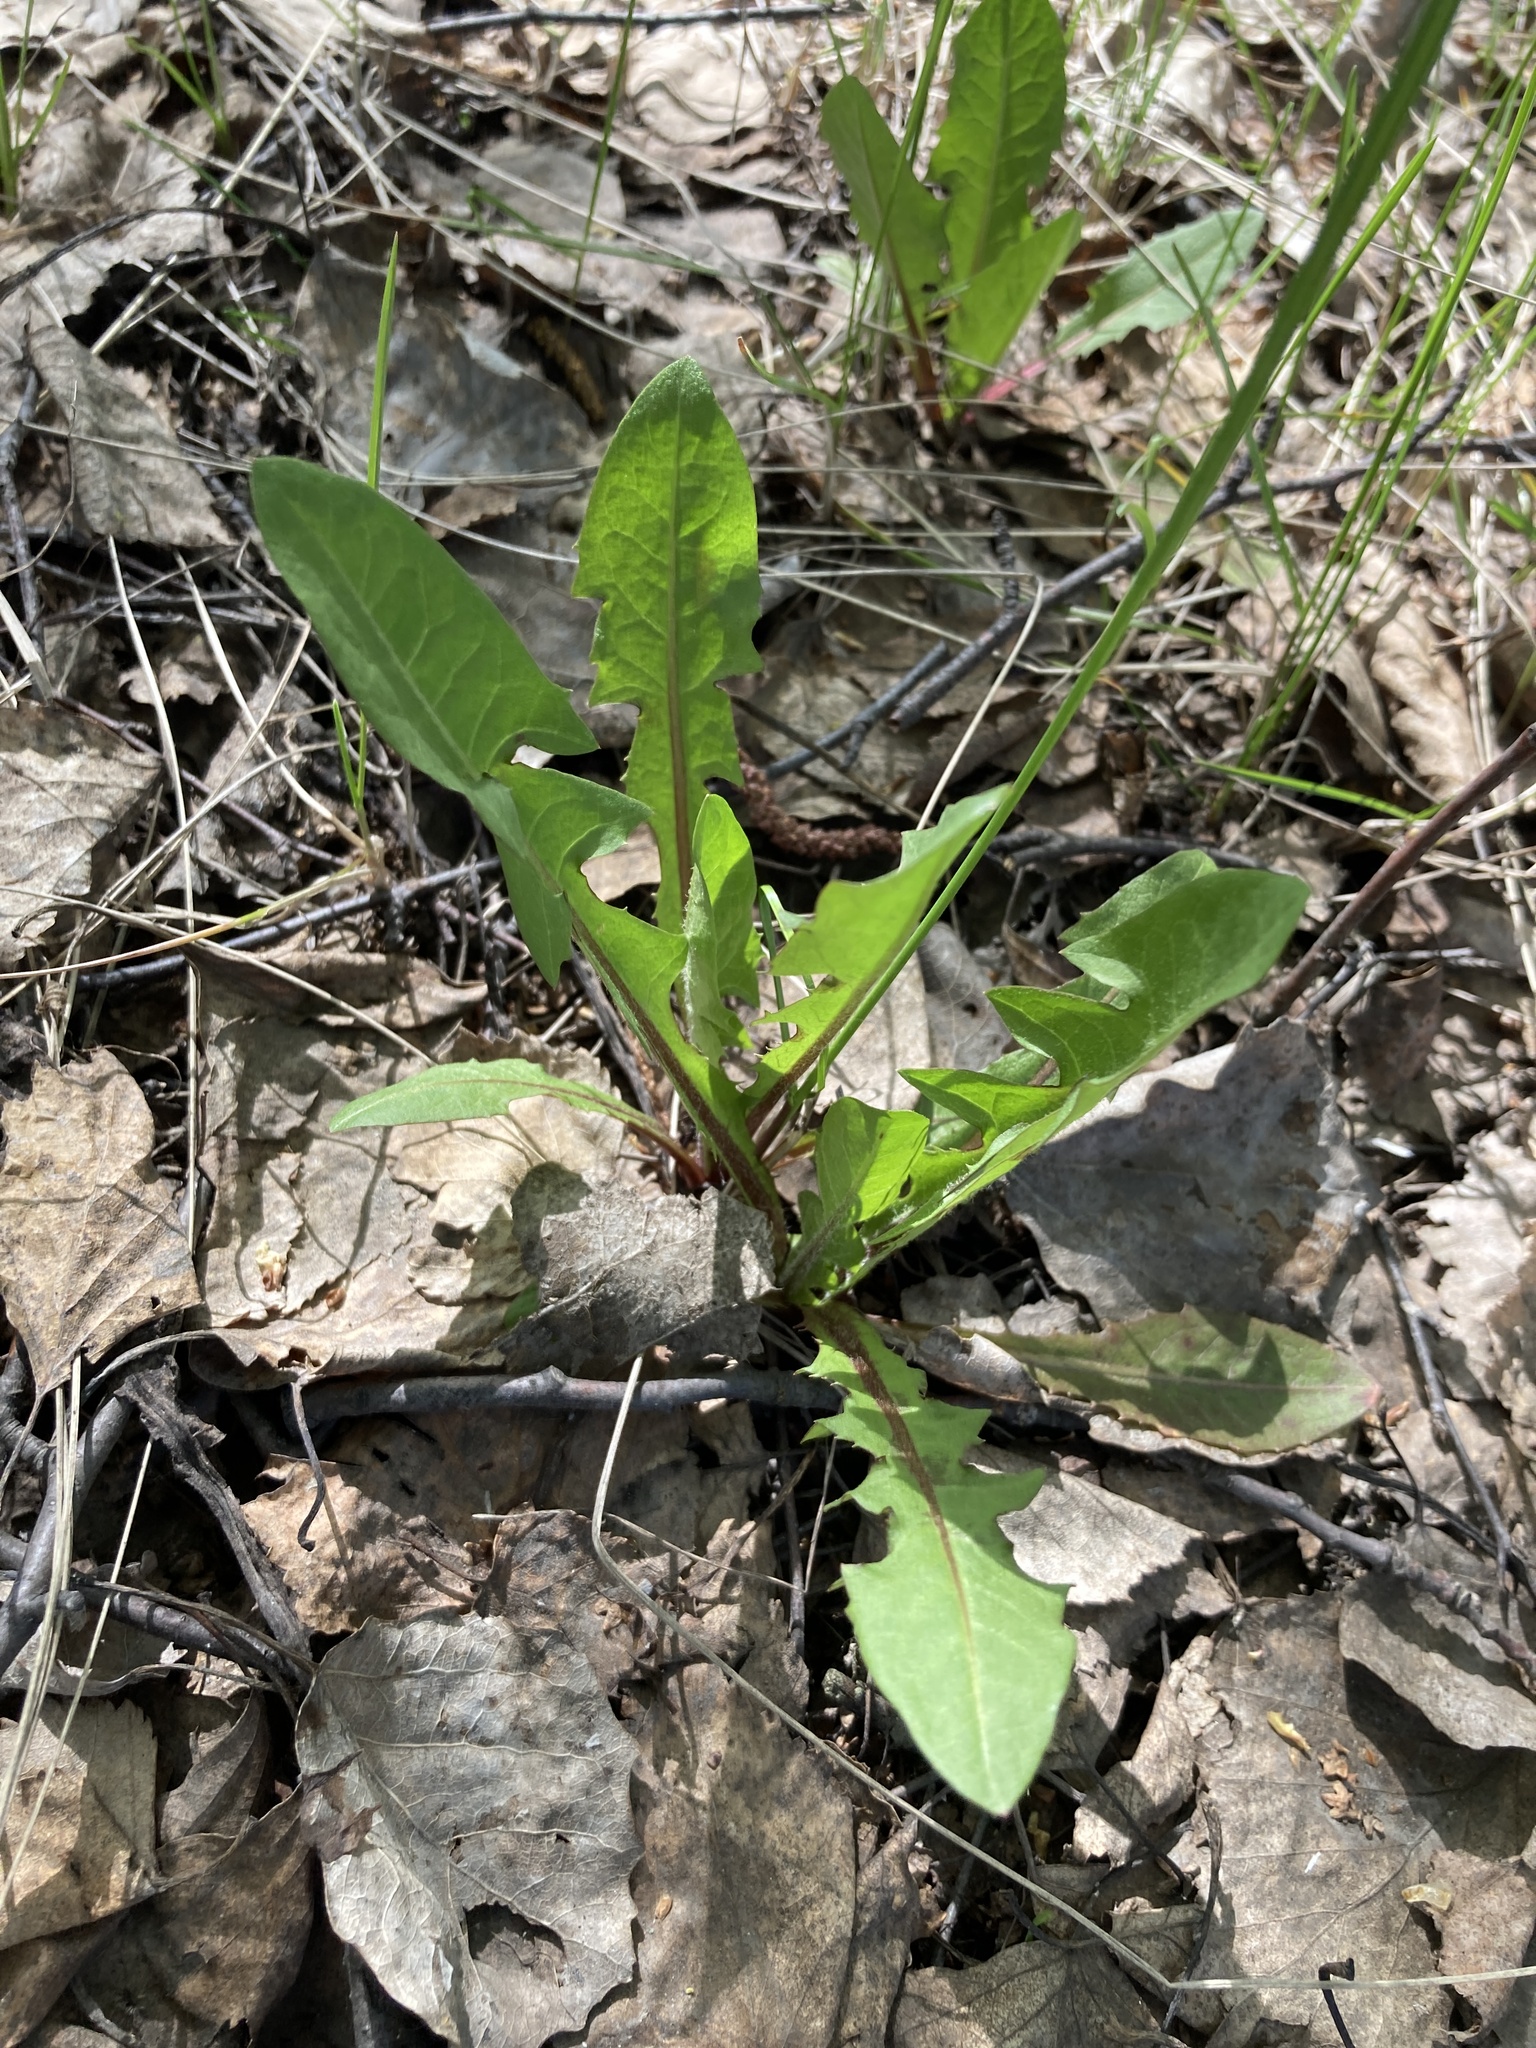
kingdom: Plantae
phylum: Tracheophyta
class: Magnoliopsida
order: Asterales
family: Asteraceae
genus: Taraxacum
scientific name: Taraxacum officinale
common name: Common dandelion
